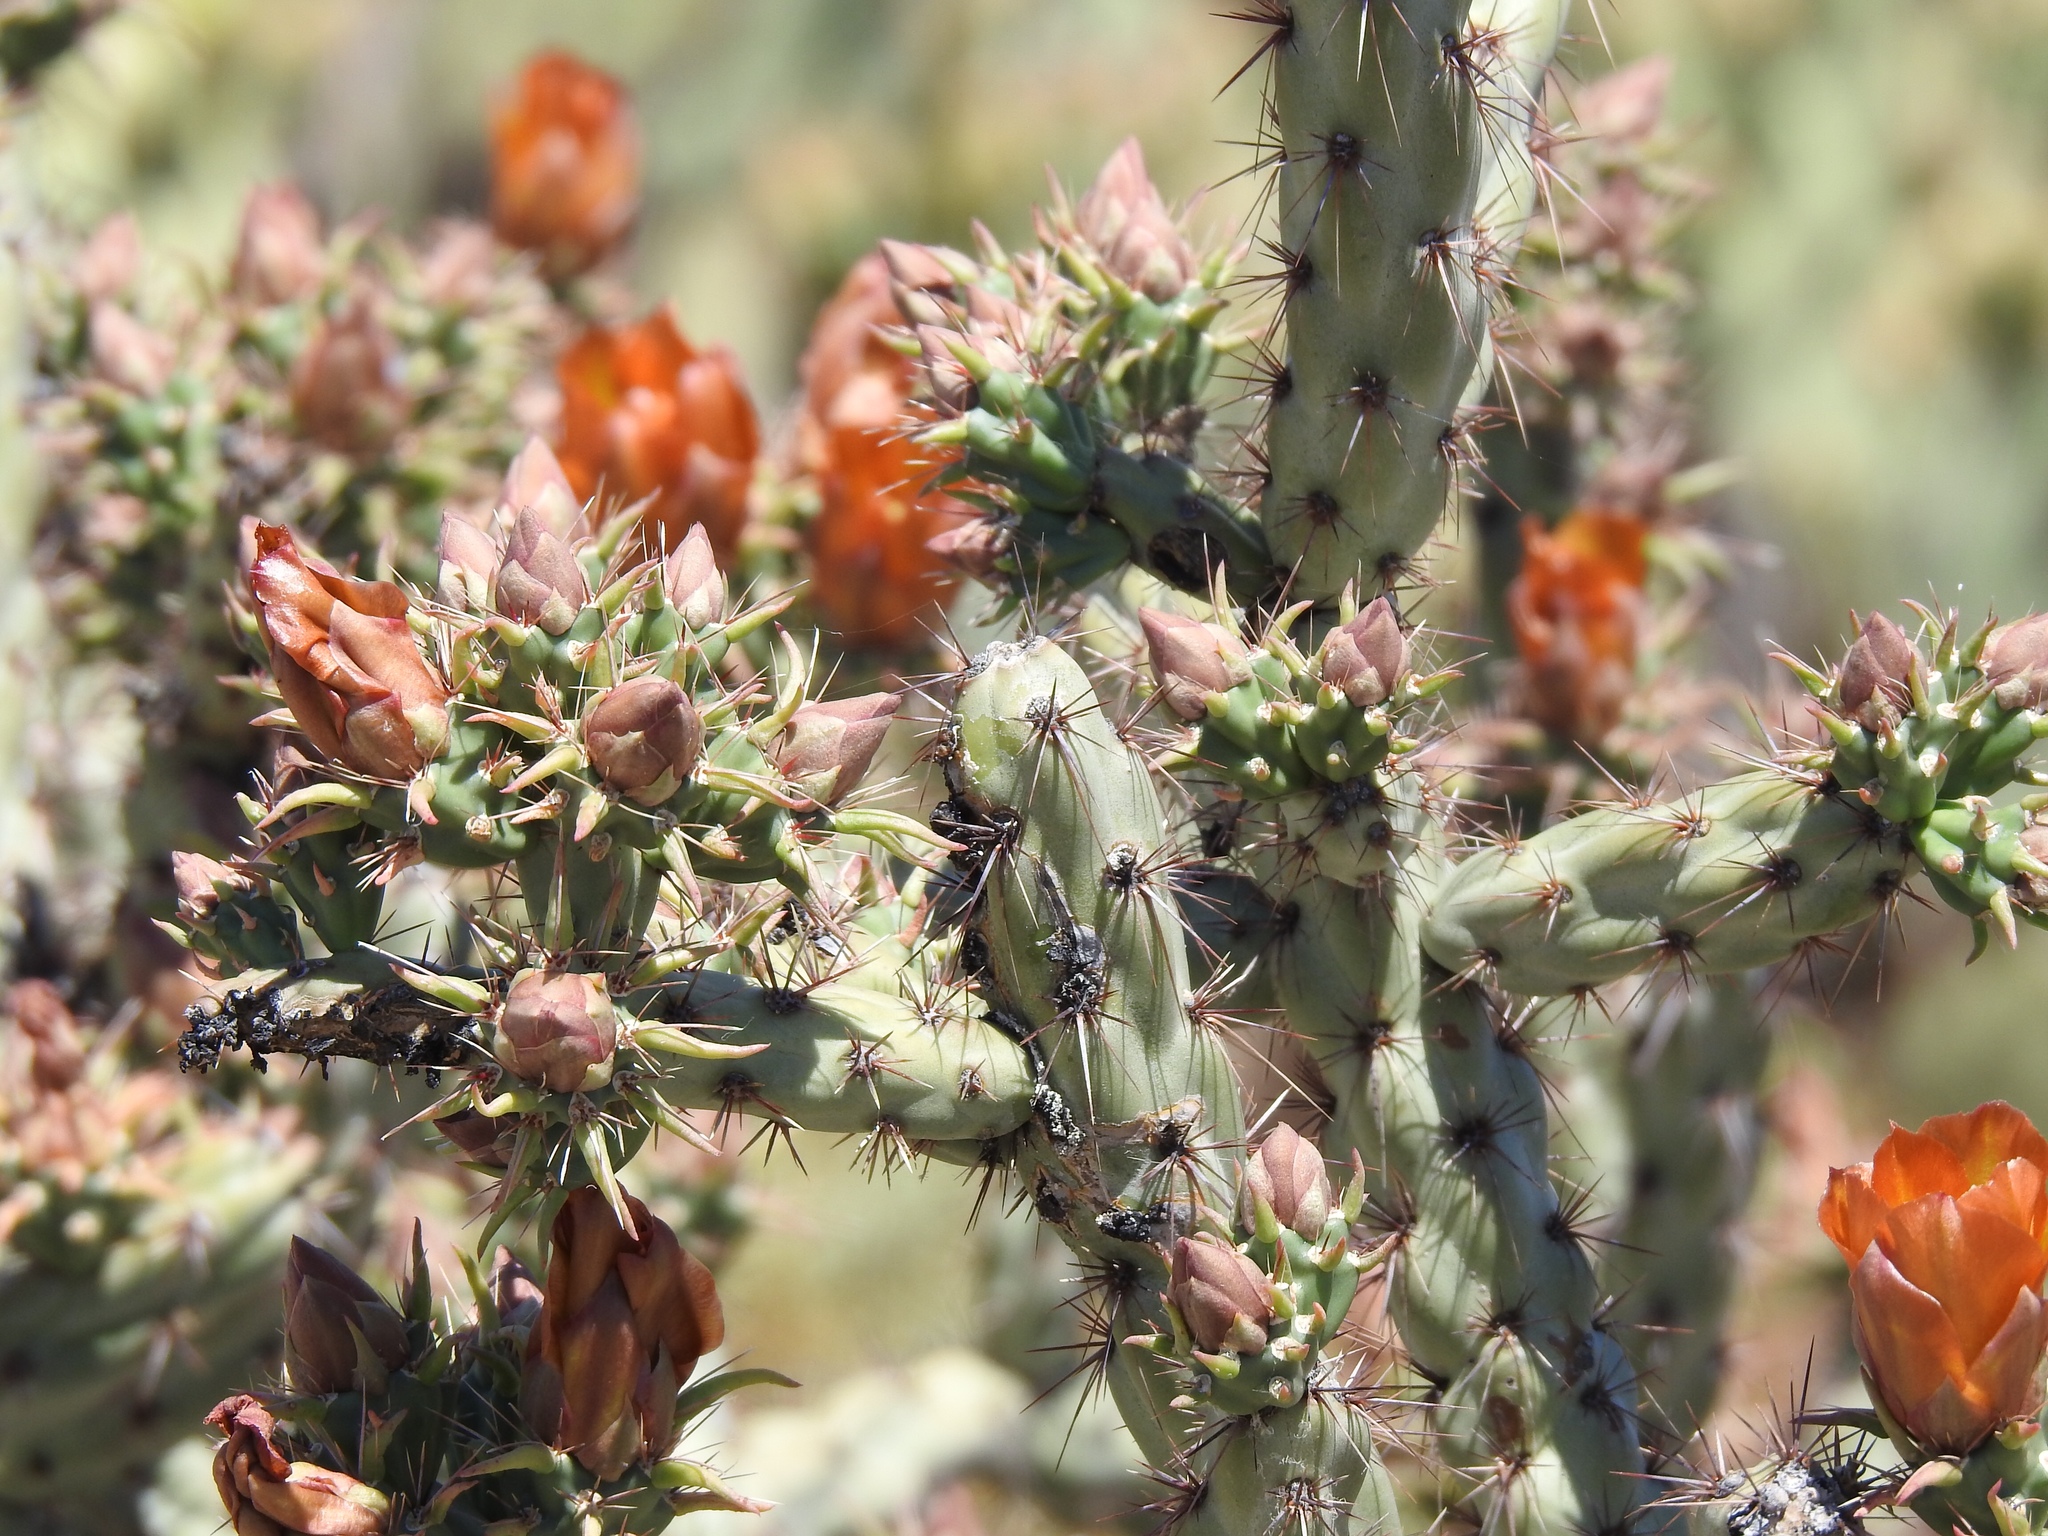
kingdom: Plantae
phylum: Tracheophyta
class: Magnoliopsida
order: Caryophyllales
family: Cactaceae
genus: Cylindropuntia
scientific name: Cylindropuntia acanthocarpa
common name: Buckhorn cholla
